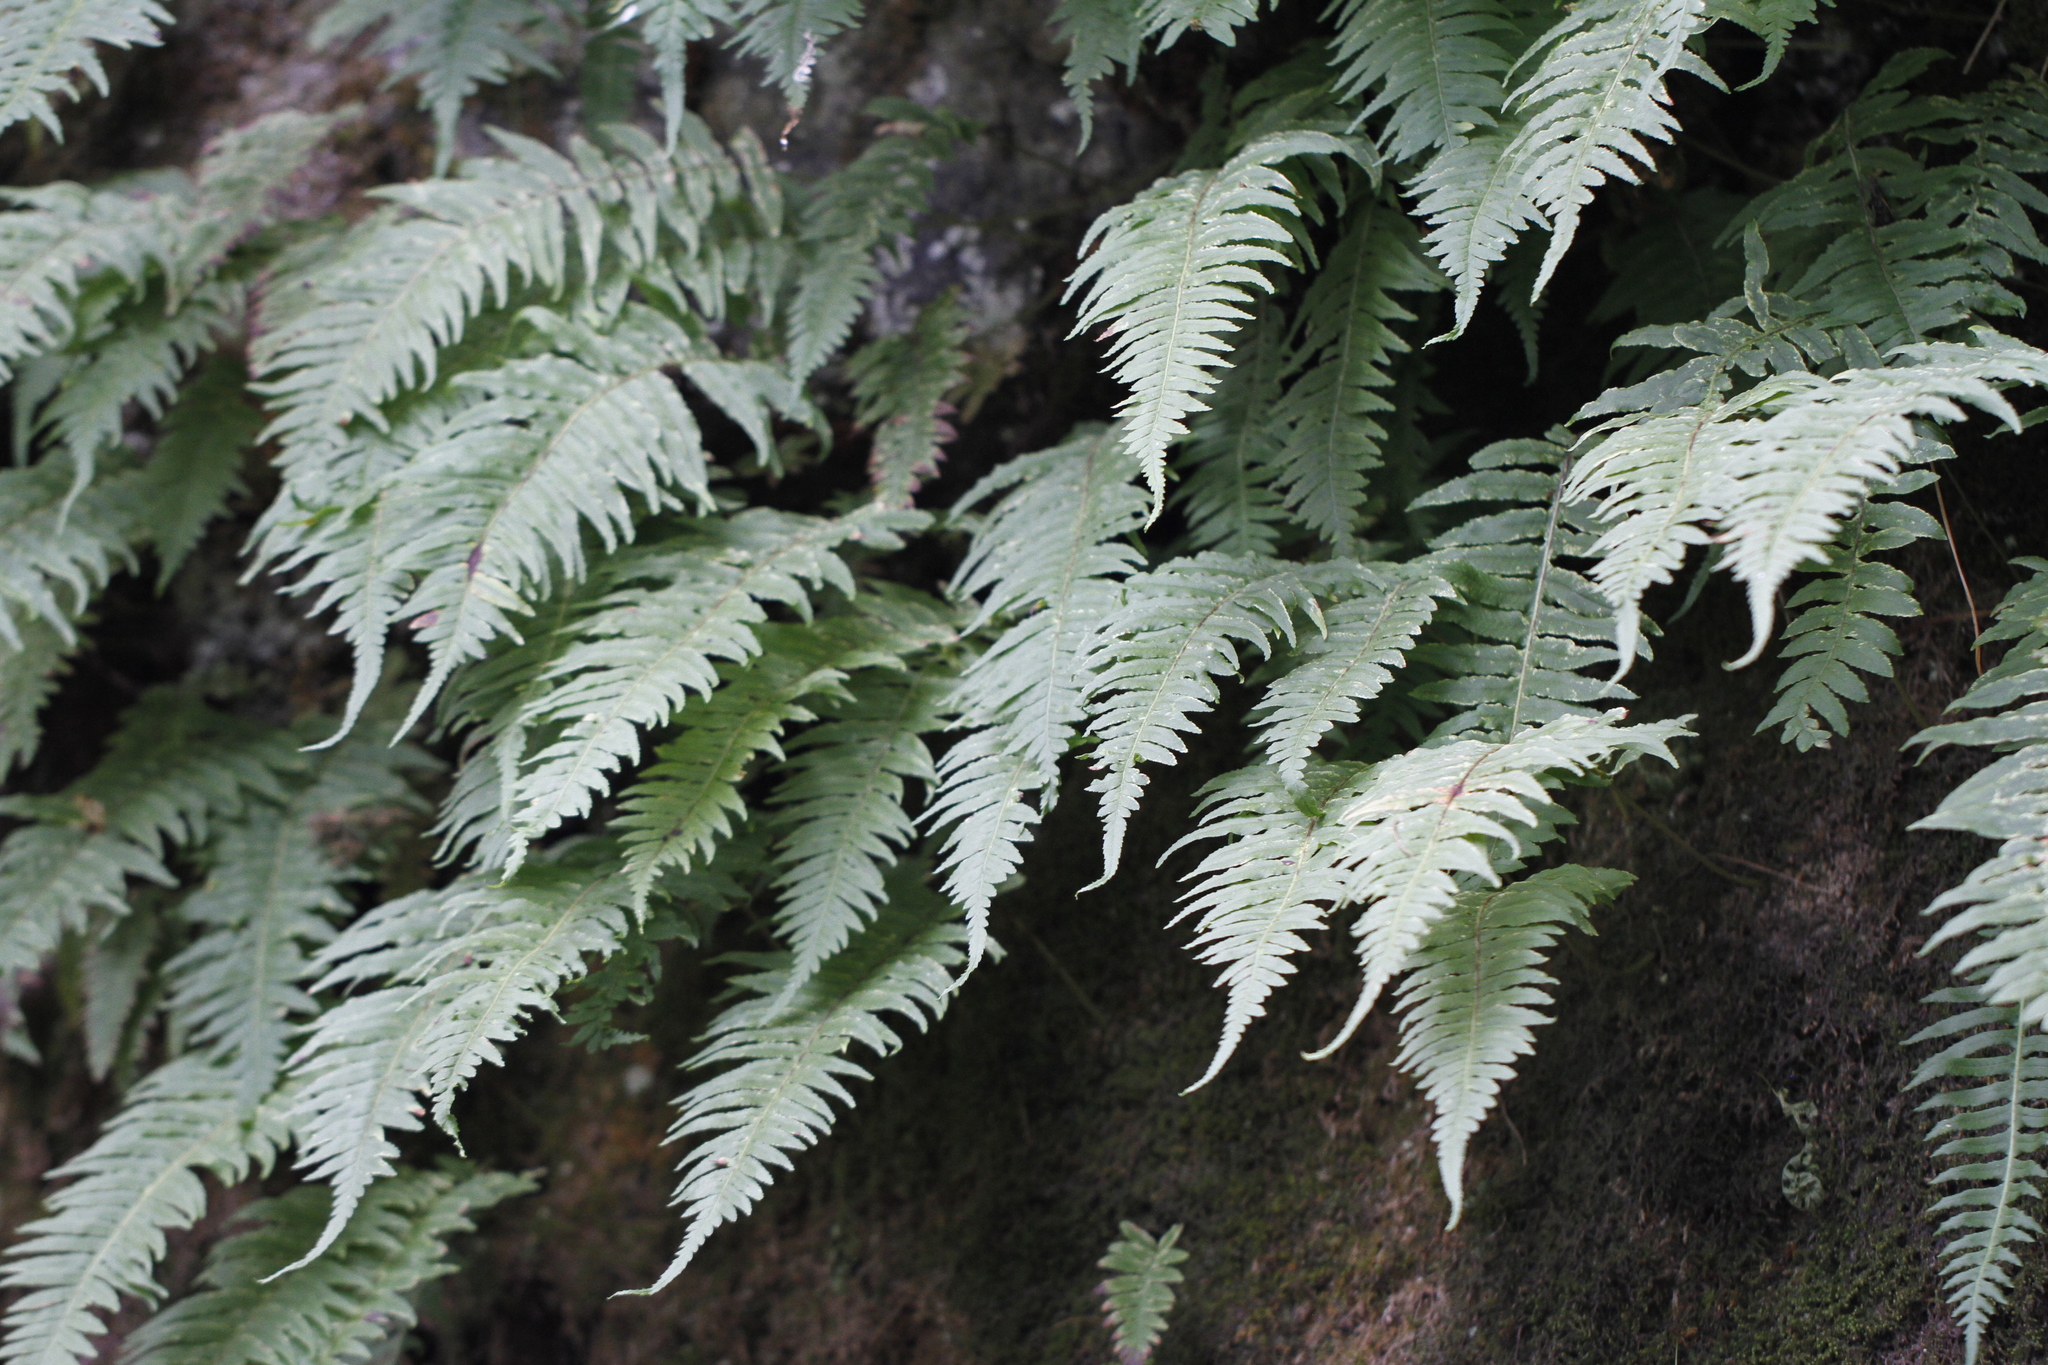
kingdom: Plantae
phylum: Tracheophyta
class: Polypodiopsida
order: Polypodiales
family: Polypodiaceae
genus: Polypodium
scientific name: Polypodium glycyrrhiza
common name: Licorice fern
